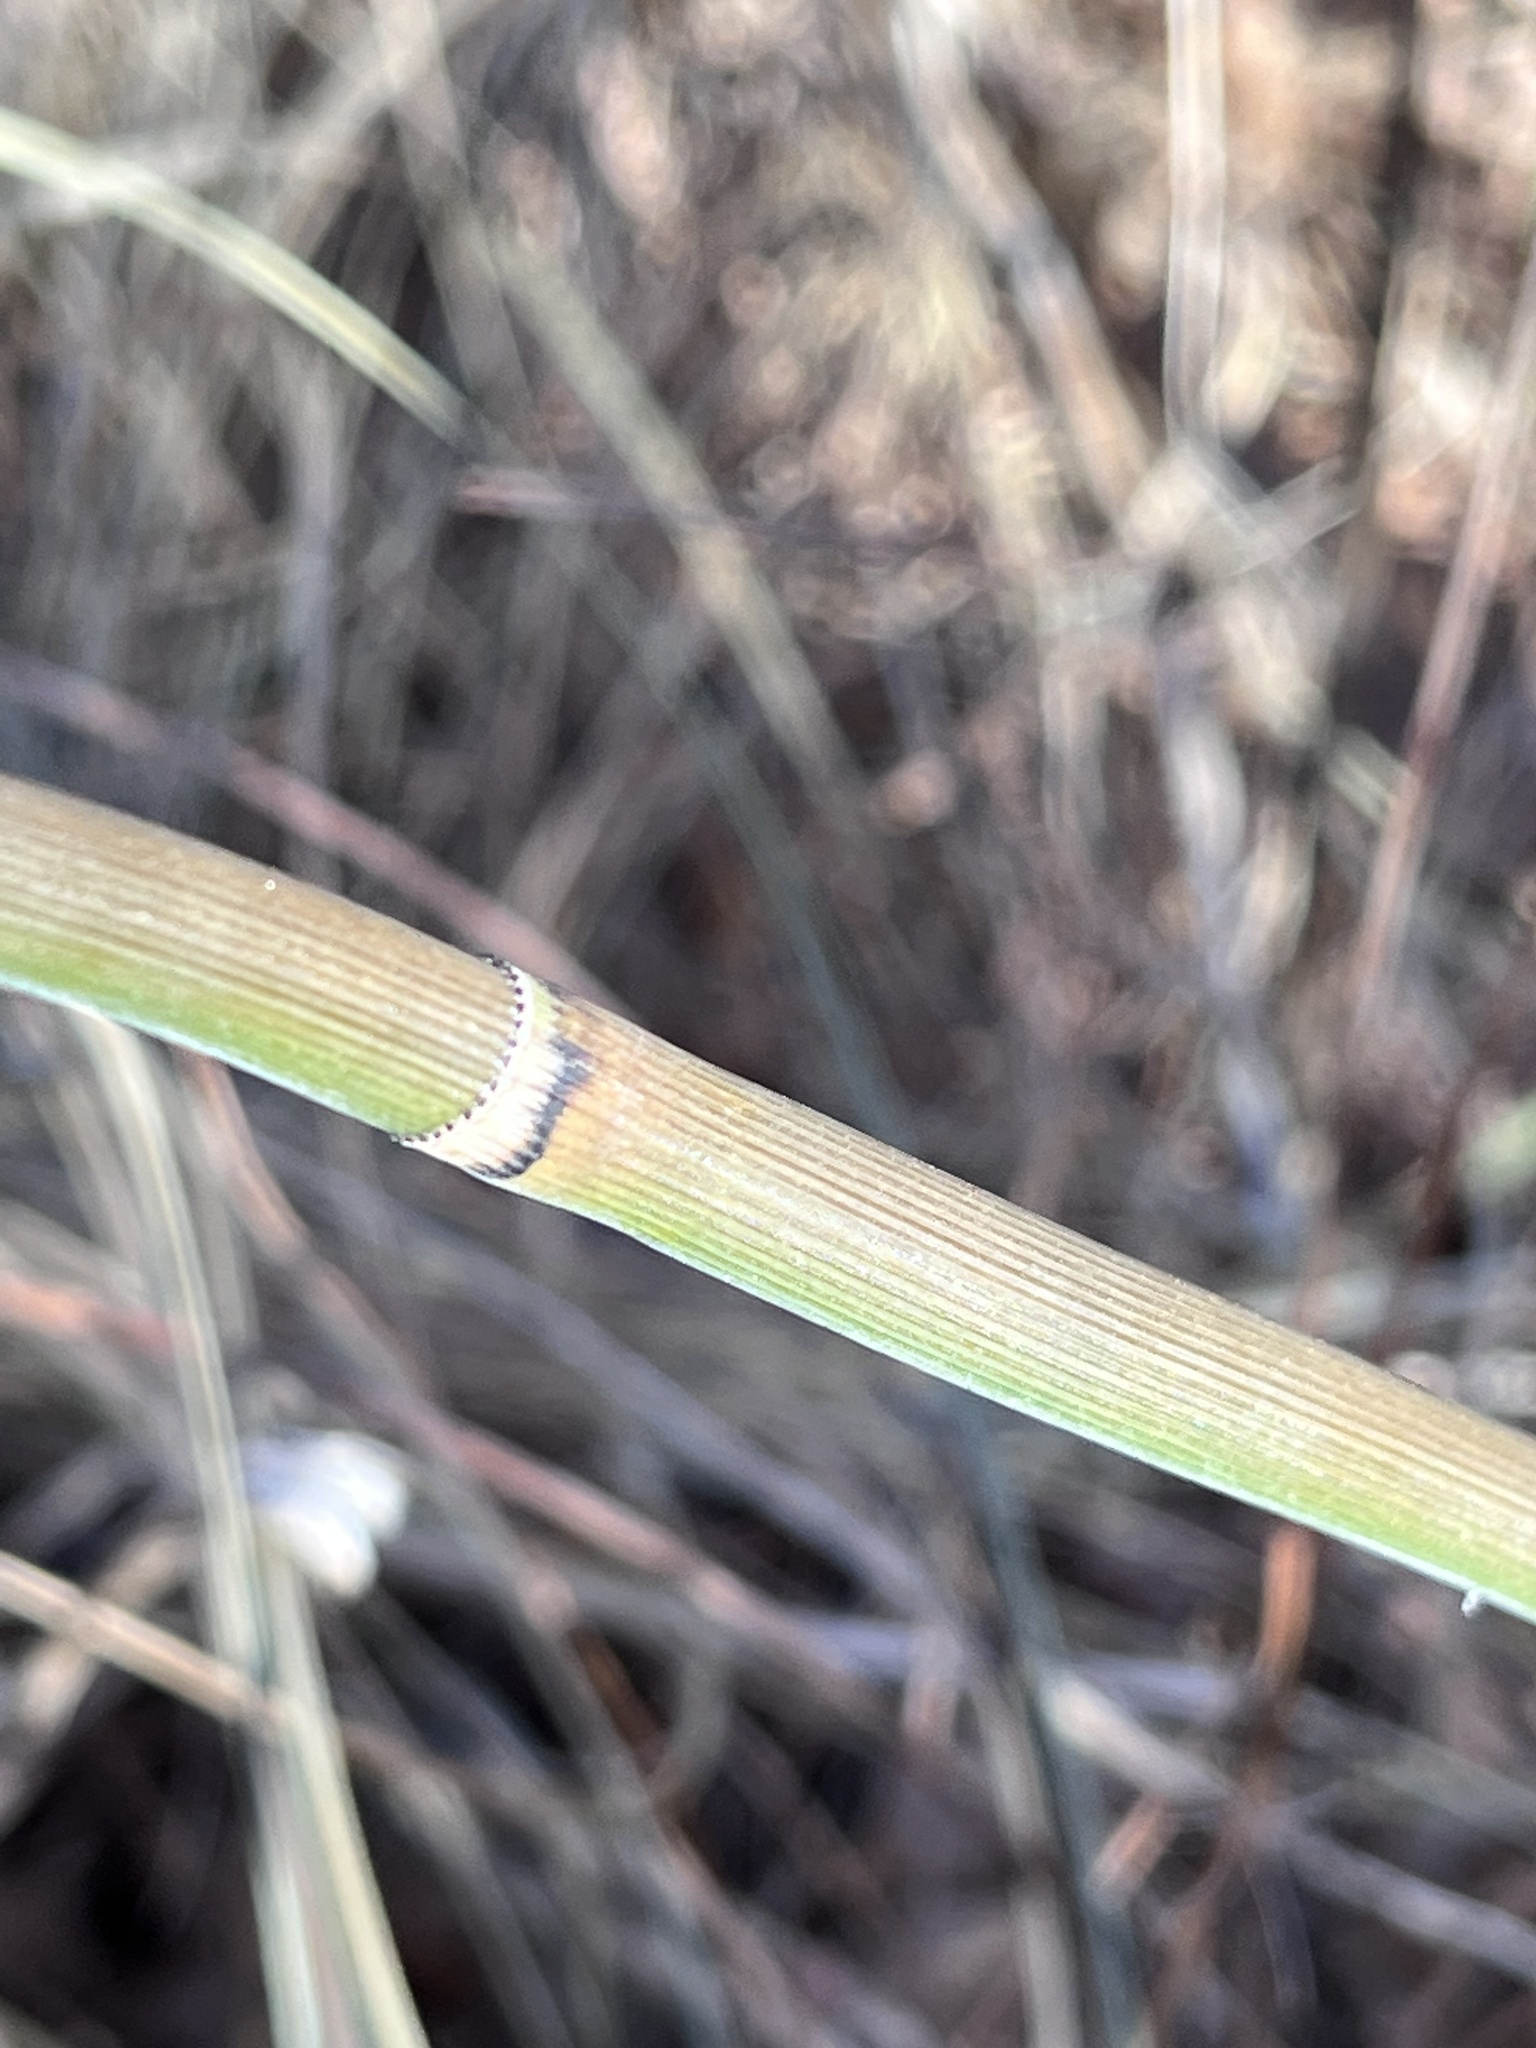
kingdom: Plantae
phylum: Tracheophyta
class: Polypodiopsida
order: Equisetales
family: Equisetaceae
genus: Equisetum
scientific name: Equisetum hyemale
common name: Rough horsetail
